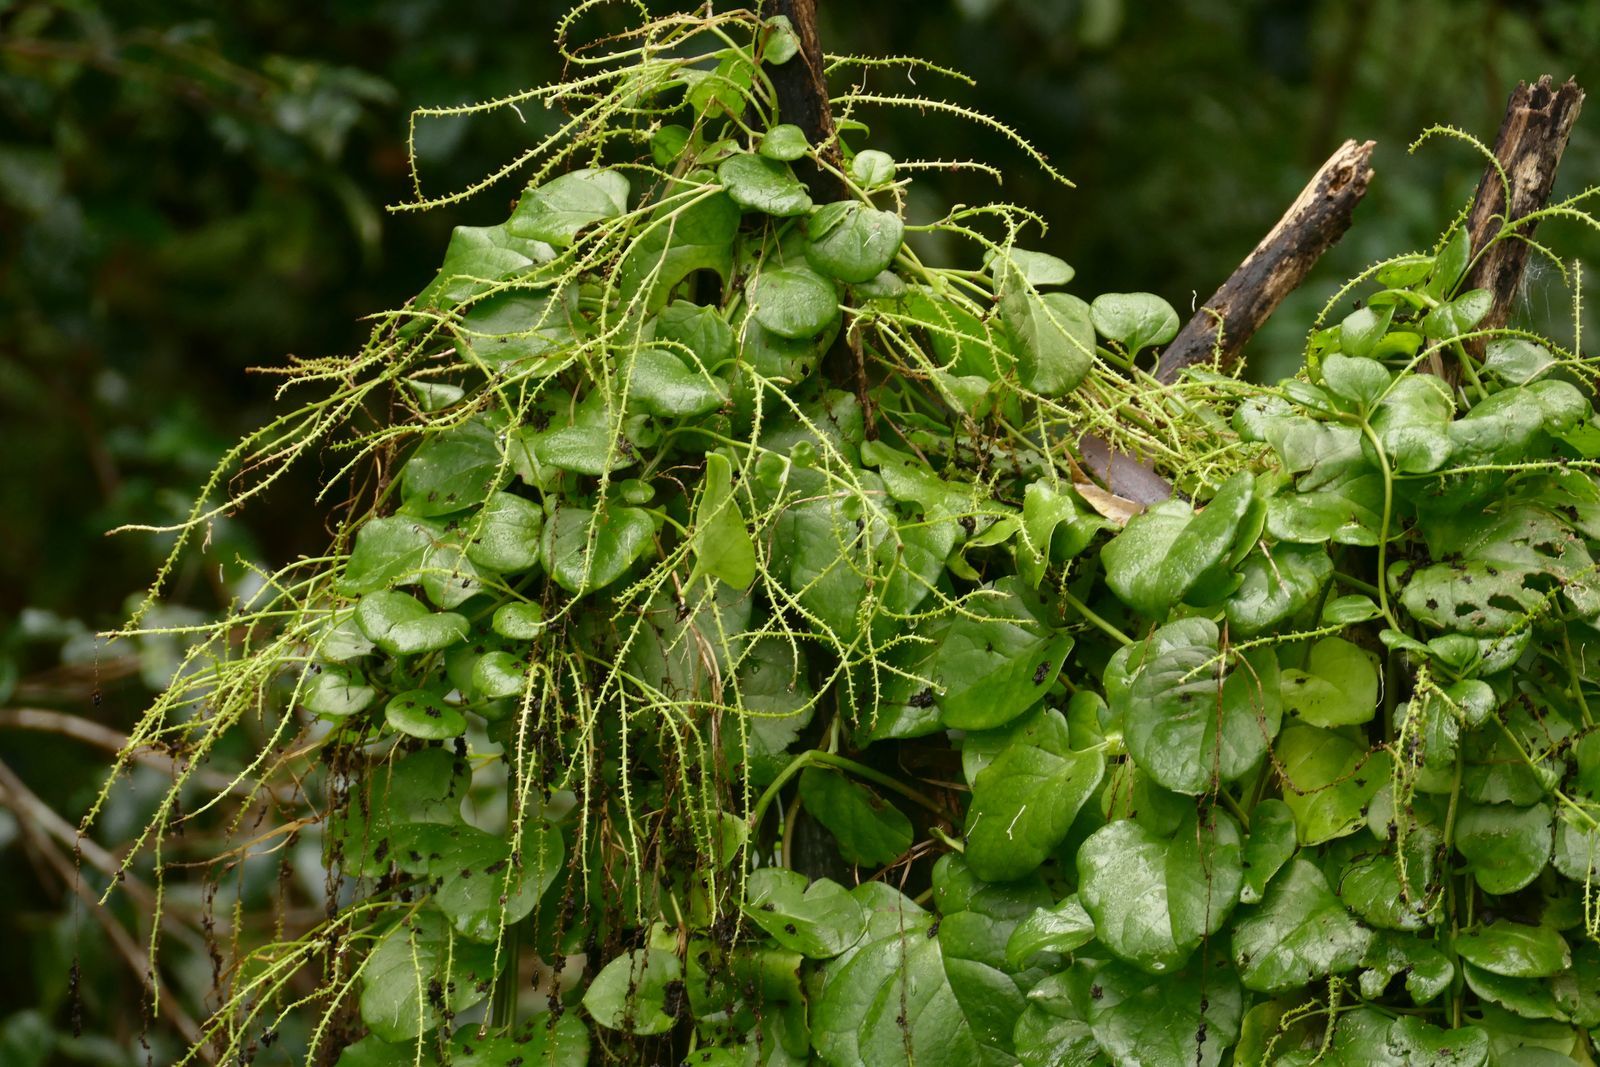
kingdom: Plantae
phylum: Tracheophyta
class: Magnoliopsida
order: Caryophyllales
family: Basellaceae
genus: Anredera
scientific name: Anredera cordifolia
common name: Heartleaf madeiravine
